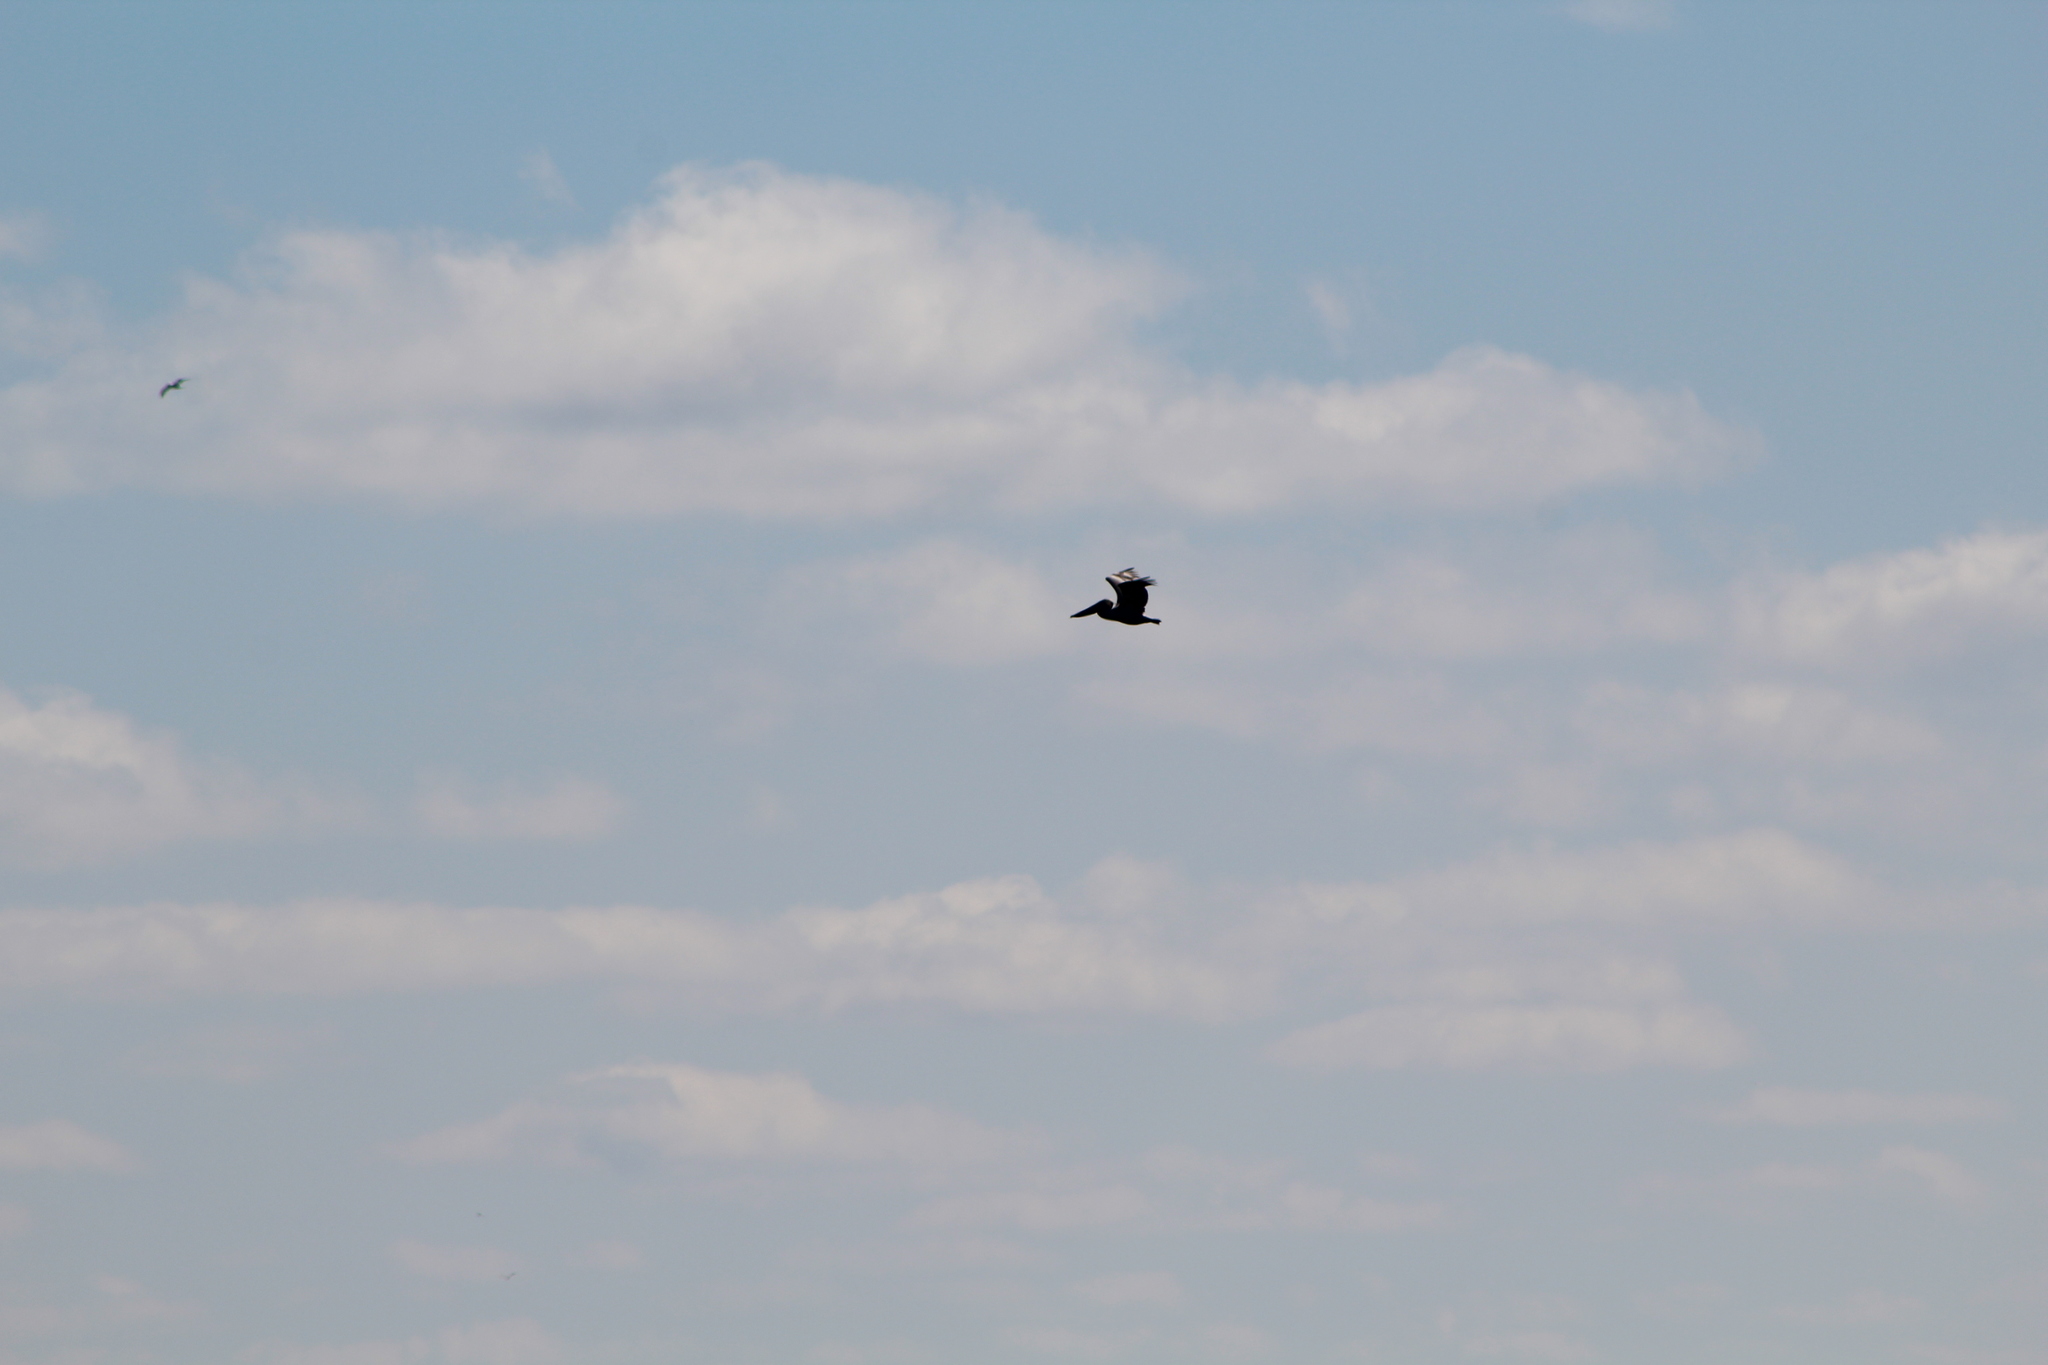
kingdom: Animalia
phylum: Chordata
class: Aves
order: Pelecaniformes
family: Pelecanidae
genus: Pelecanus
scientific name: Pelecanus occidentalis
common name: Brown pelican
